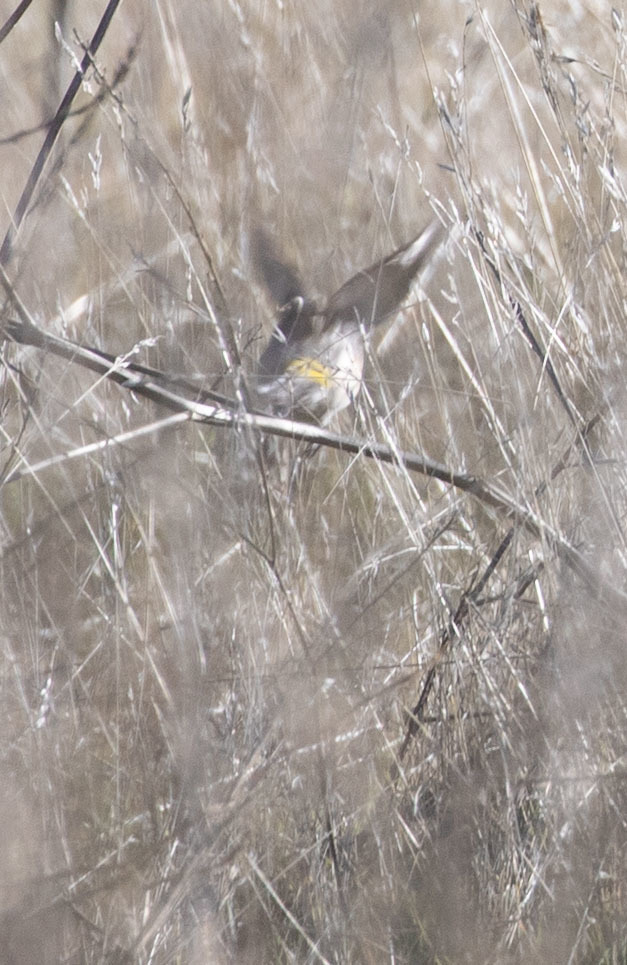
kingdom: Animalia
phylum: Chordata
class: Aves
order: Passeriformes
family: Parulidae
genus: Setophaga
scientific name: Setophaga coronata
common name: Myrtle warbler
